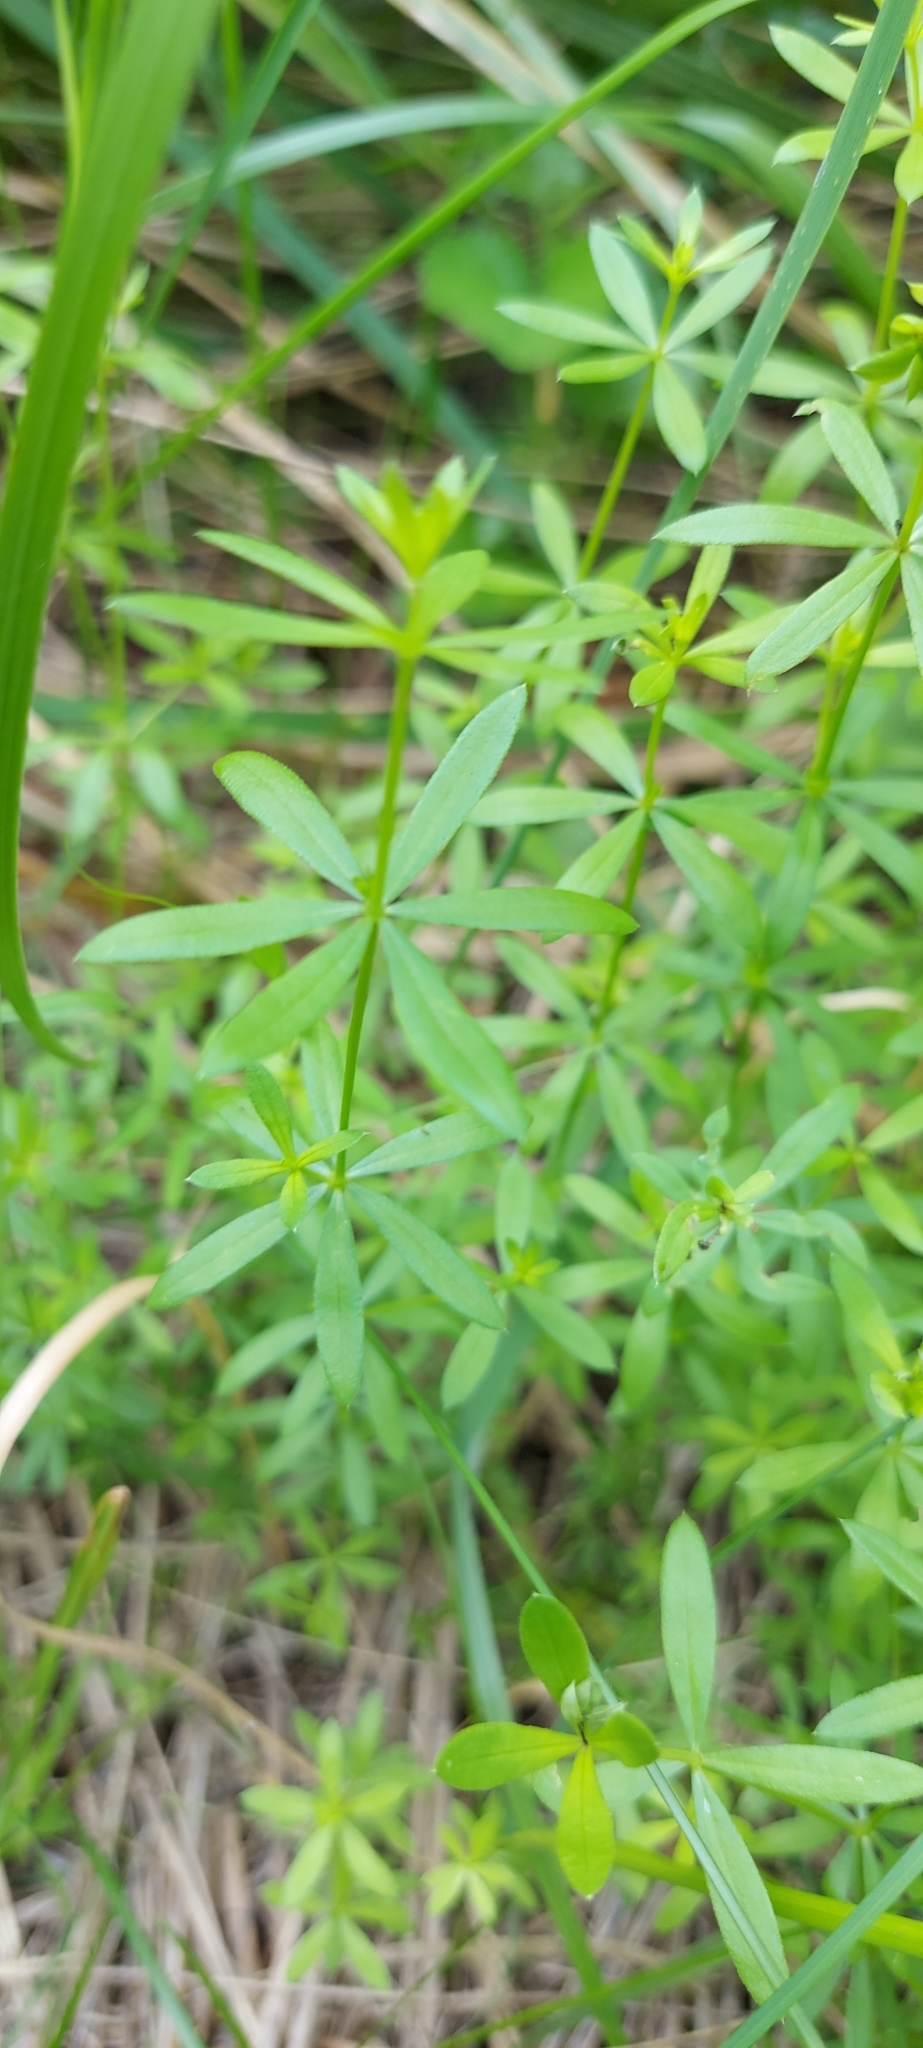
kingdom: Plantae
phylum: Tracheophyta
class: Magnoliopsida
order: Gentianales
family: Rubiaceae
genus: Galium
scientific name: Galium mollugo
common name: Hedge bedstraw
